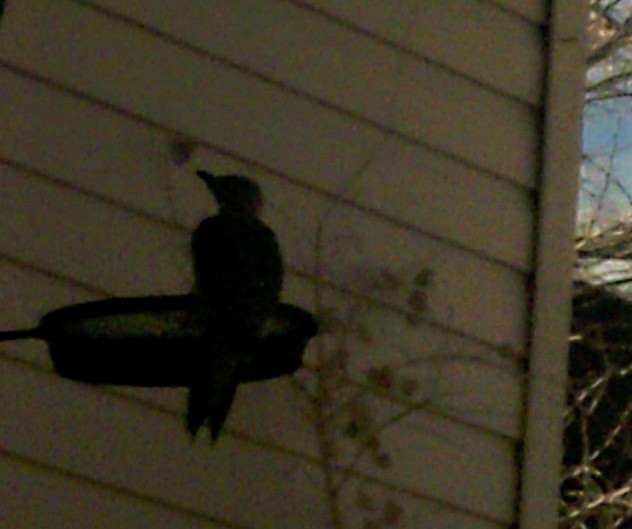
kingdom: Animalia
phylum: Chordata
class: Aves
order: Piciformes
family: Picidae
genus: Melanerpes
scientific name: Melanerpes carolinus
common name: Red-bellied woodpecker
